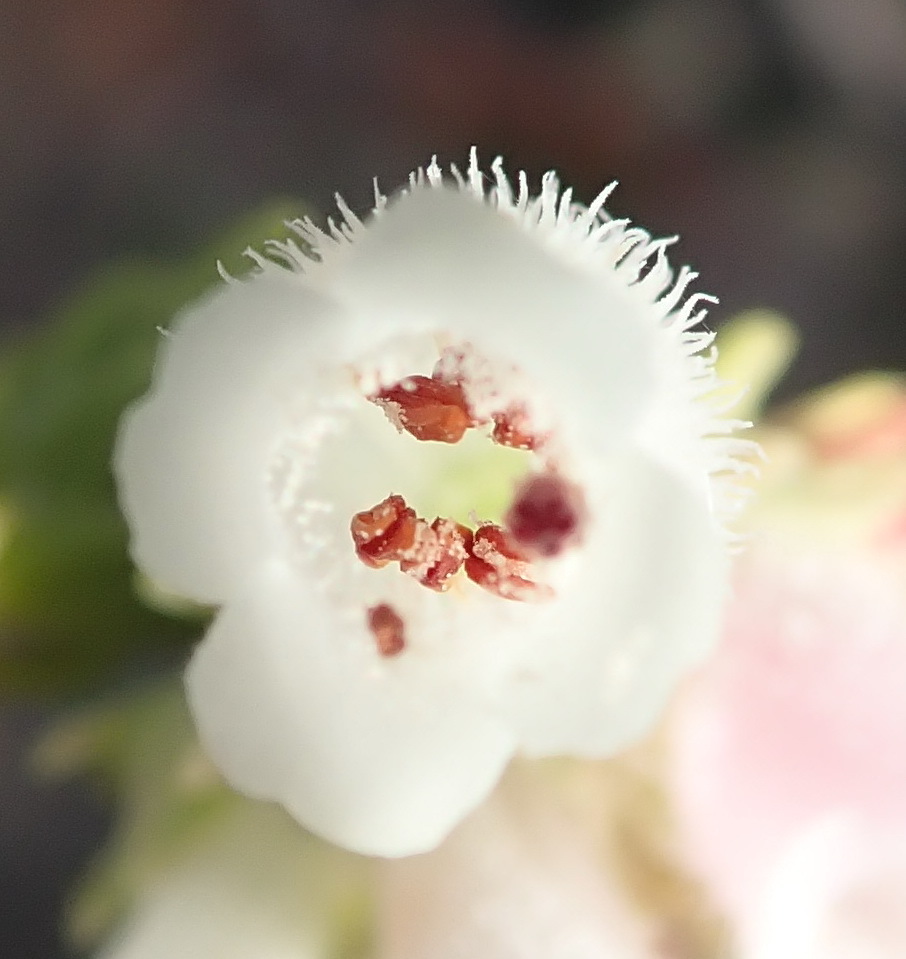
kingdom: Plantae
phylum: Tracheophyta
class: Magnoliopsida
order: Ericales
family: Ericaceae
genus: Erica
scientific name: Erica pectinifolia
